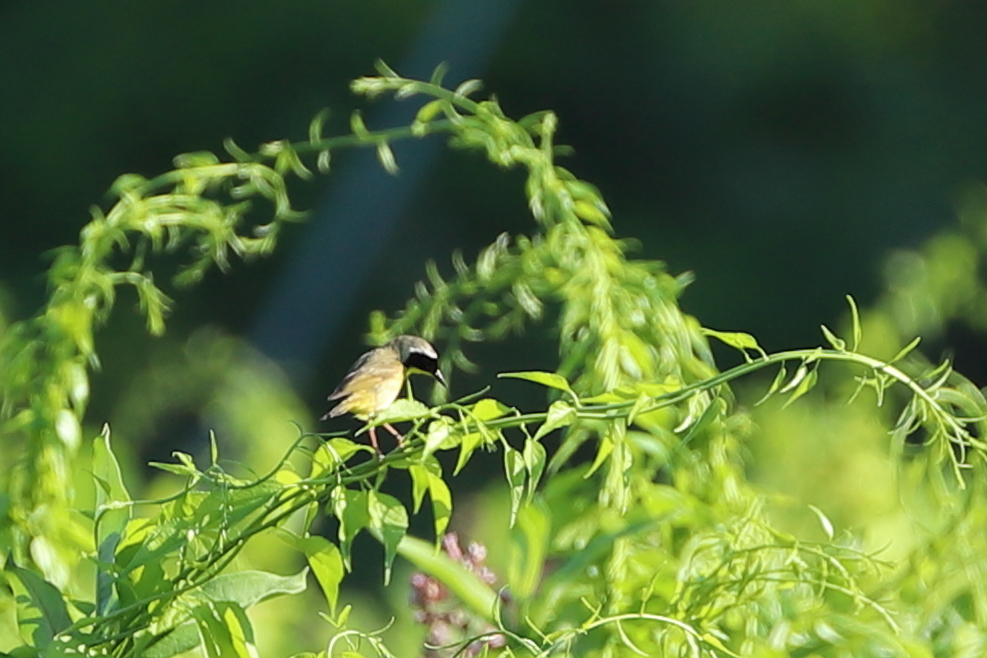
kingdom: Animalia
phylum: Chordata
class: Aves
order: Passeriformes
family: Parulidae
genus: Geothlypis
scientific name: Geothlypis trichas
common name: Common yellowthroat
